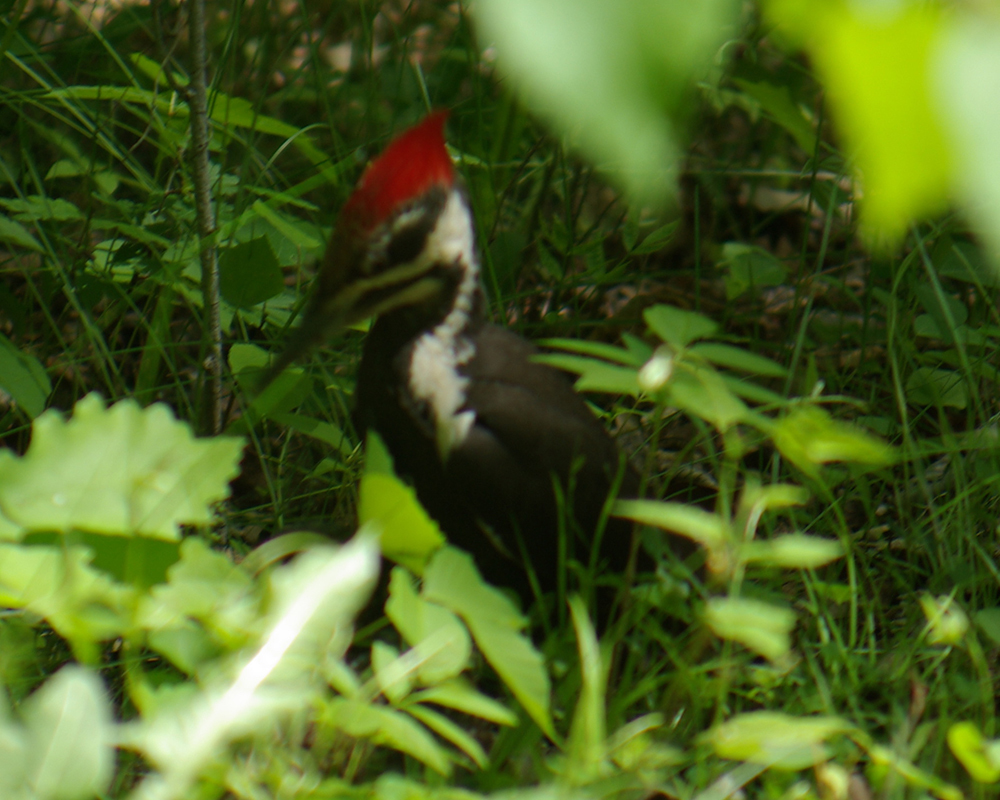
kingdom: Animalia
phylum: Chordata
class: Aves
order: Piciformes
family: Picidae
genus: Dryocopus
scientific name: Dryocopus pileatus
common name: Pileated woodpecker
